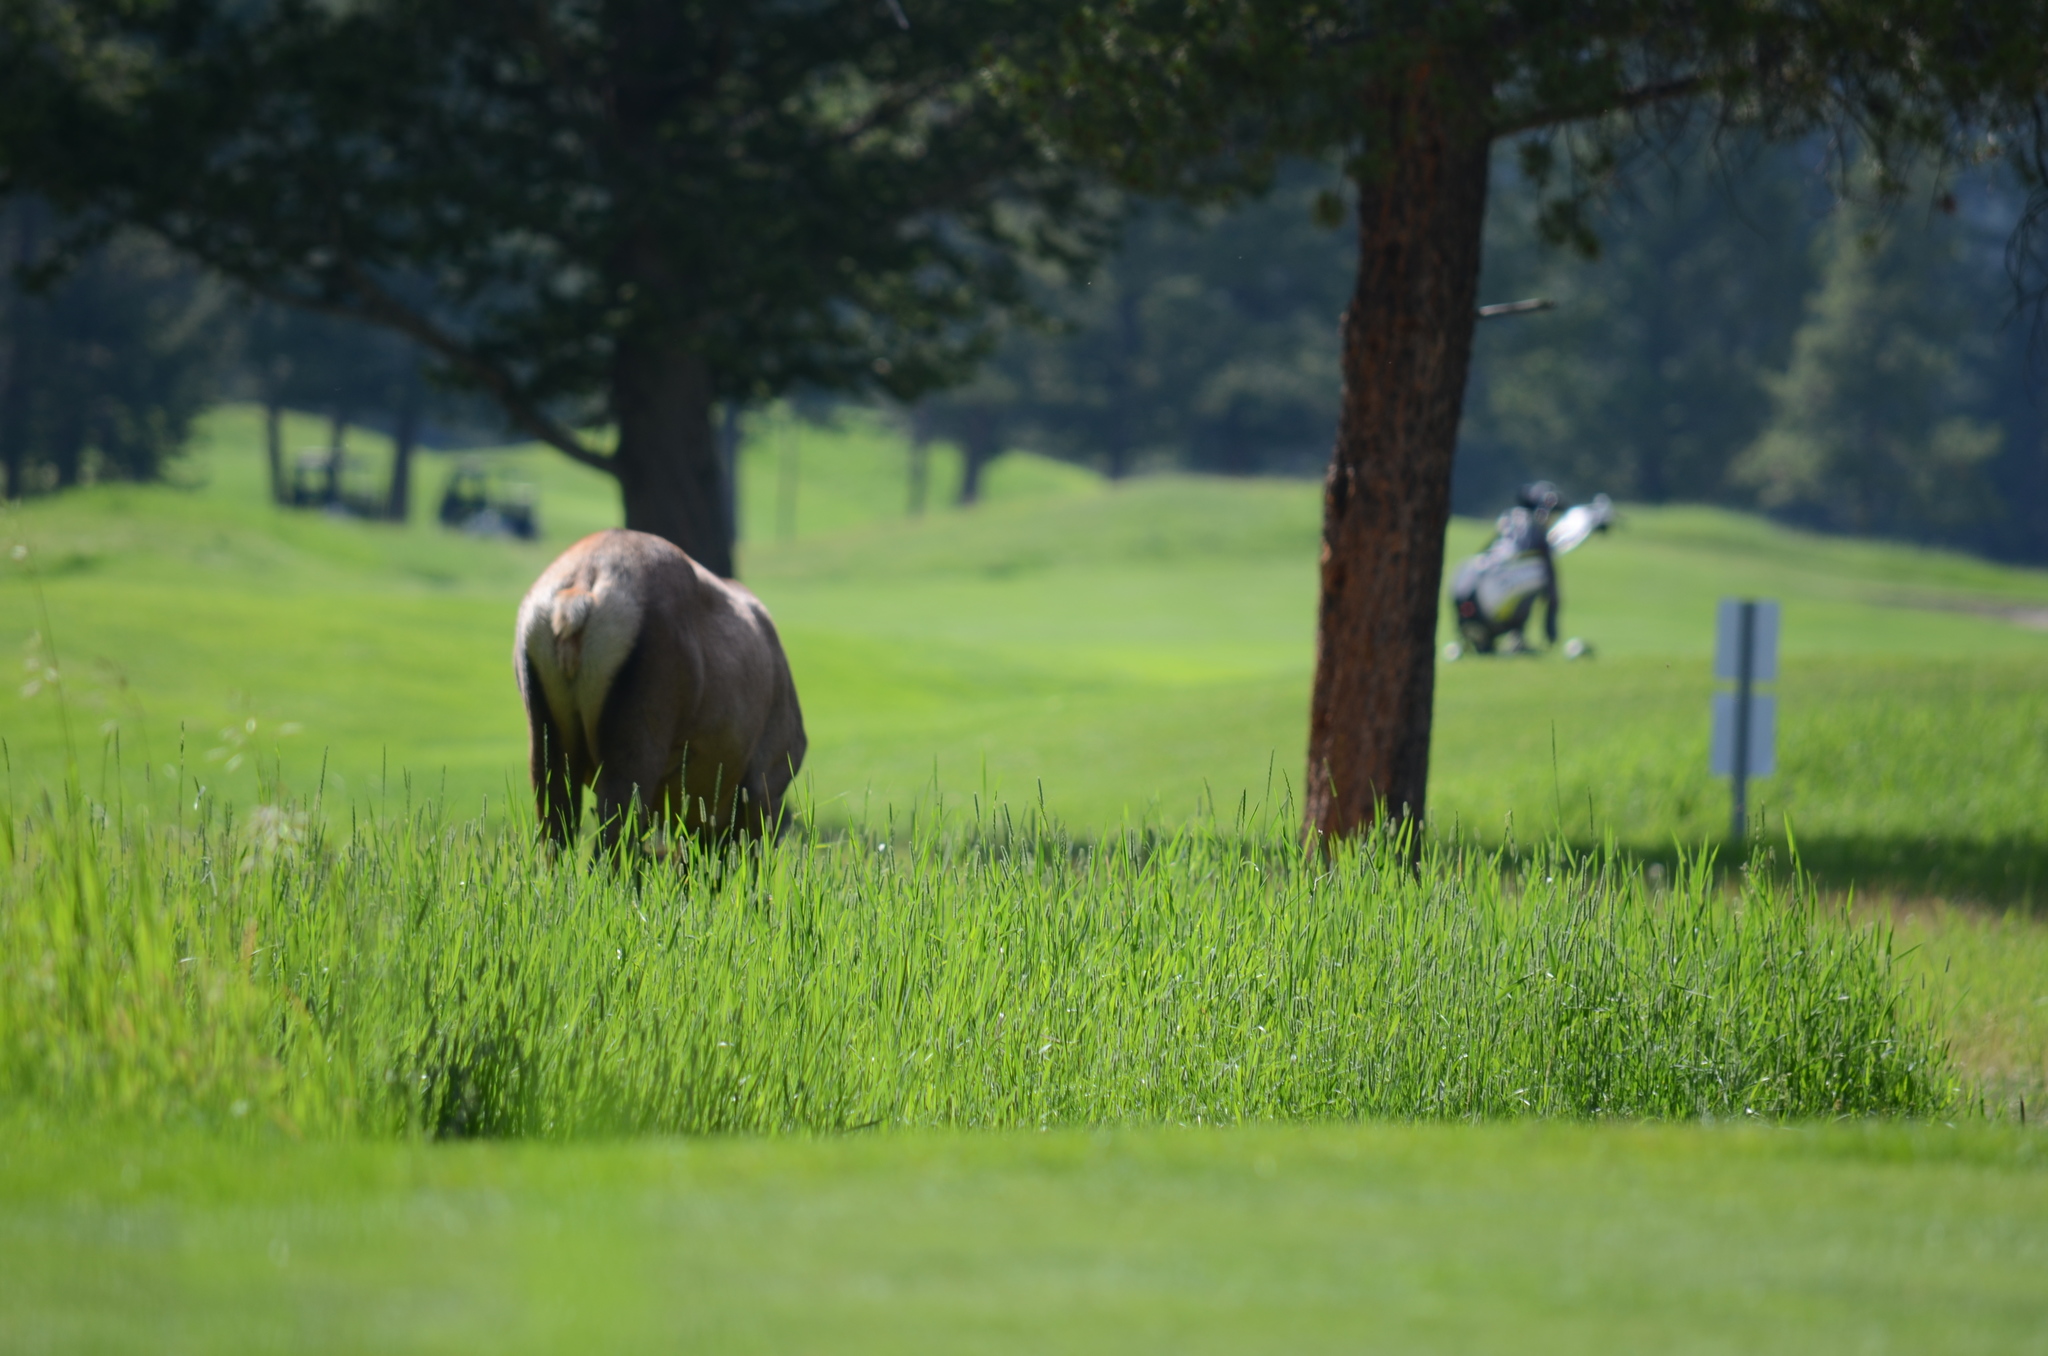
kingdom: Animalia
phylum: Chordata
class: Mammalia
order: Artiodactyla
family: Cervidae
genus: Cervus
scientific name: Cervus elaphus
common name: Red deer
